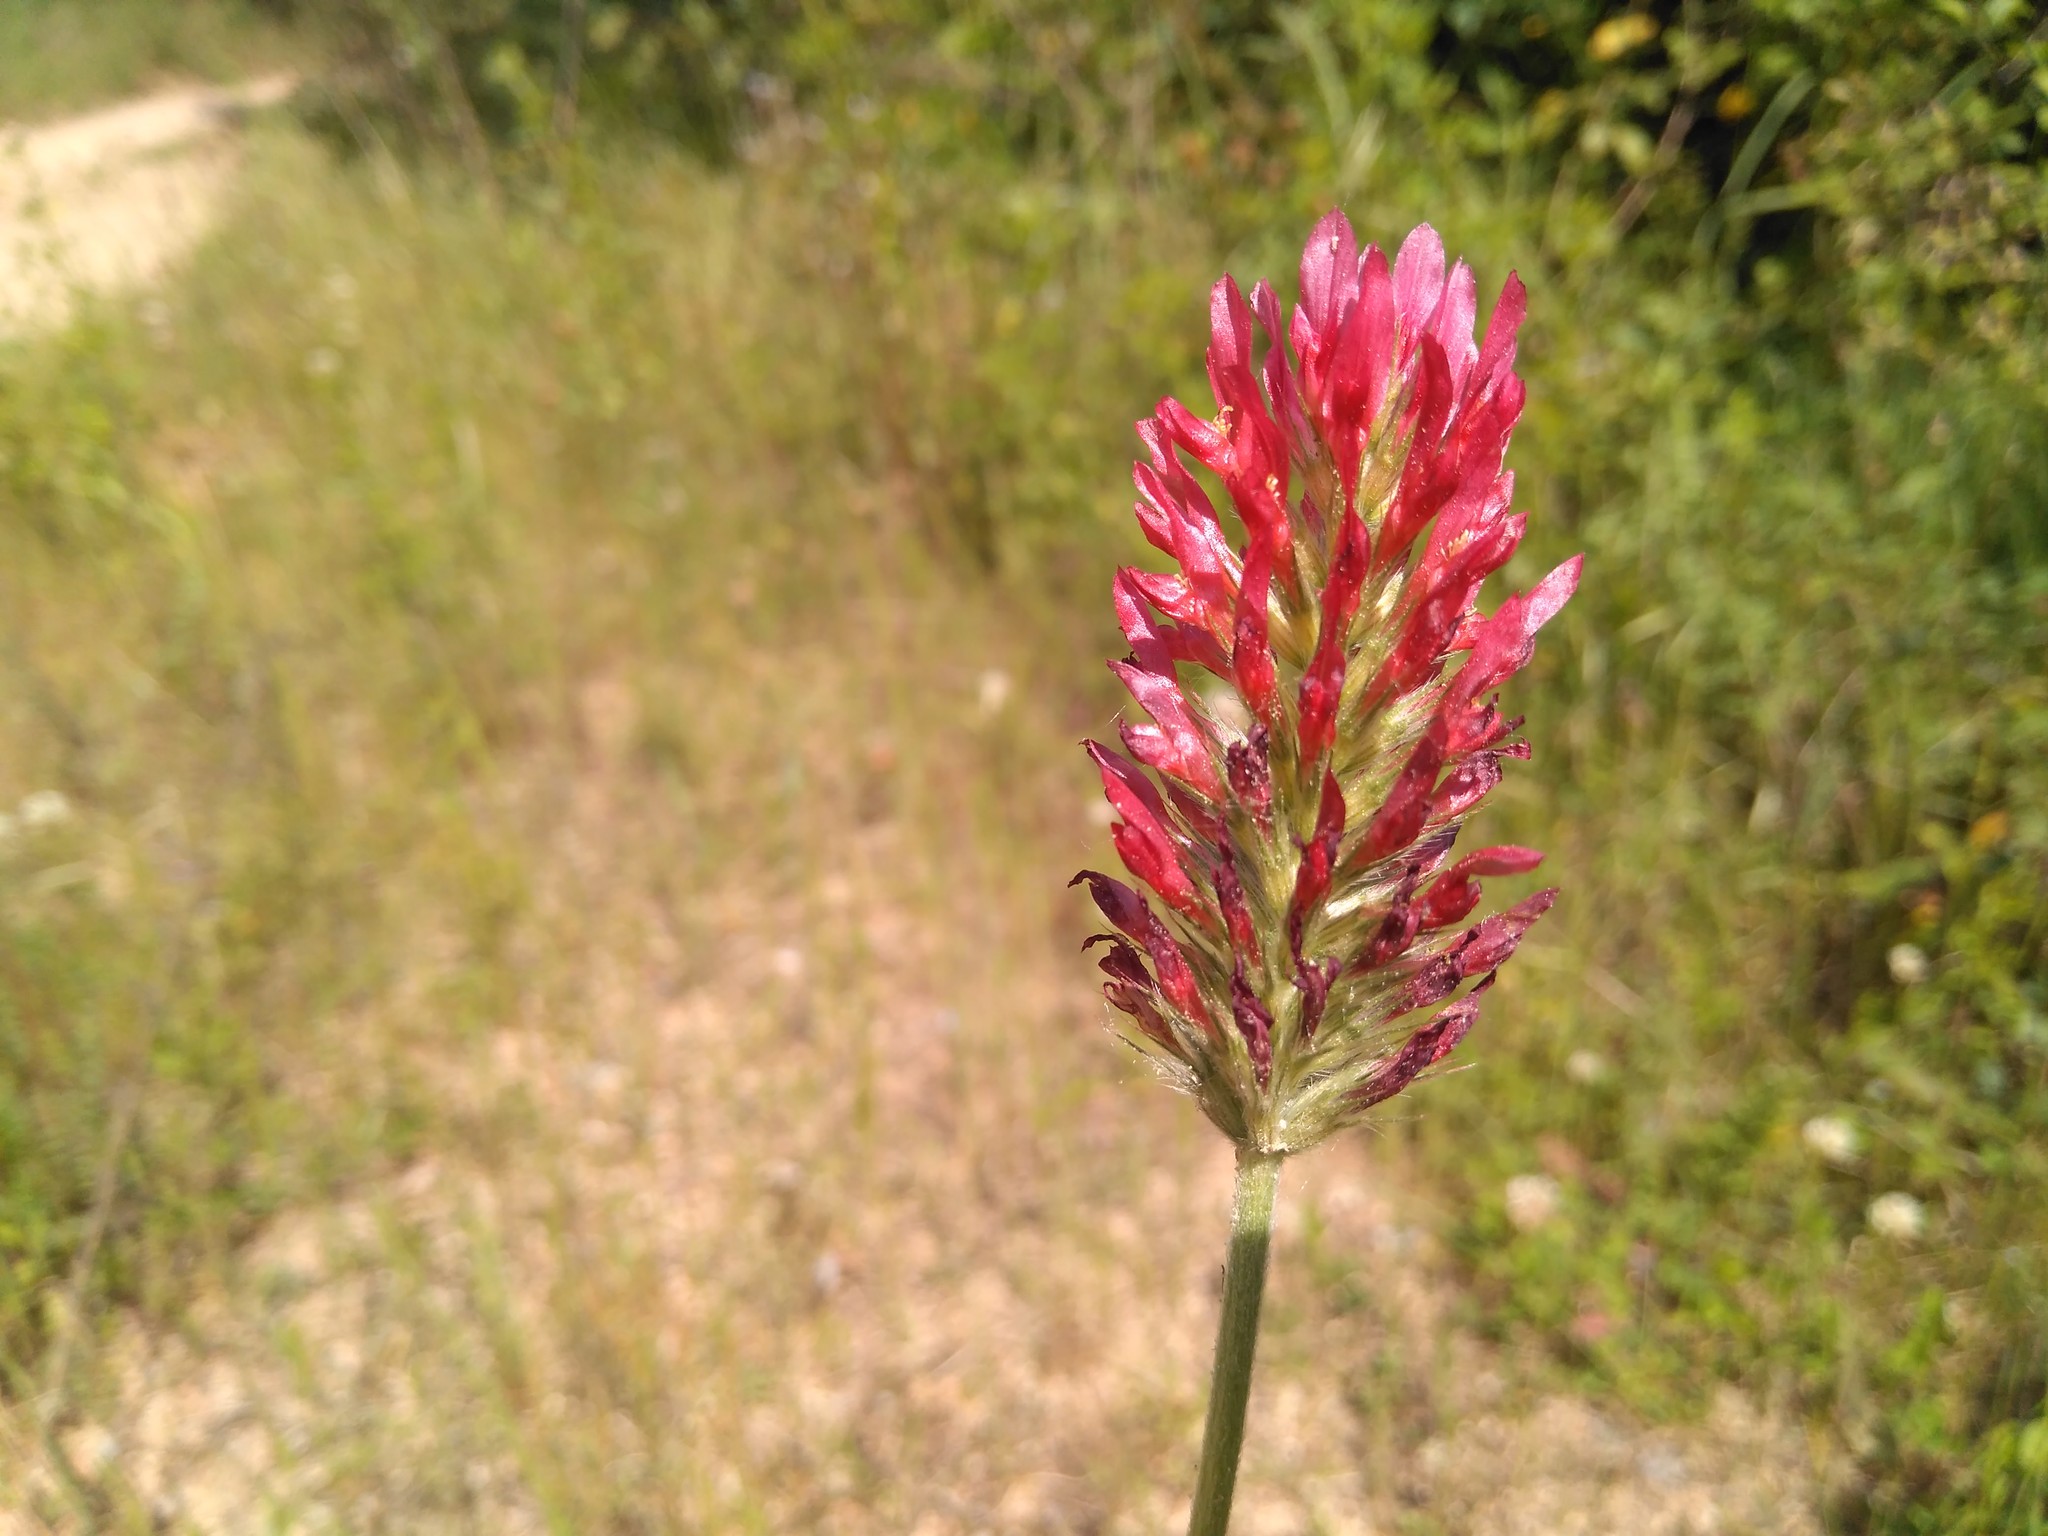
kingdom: Plantae
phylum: Tracheophyta
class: Magnoliopsida
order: Fabales
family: Fabaceae
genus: Trifolium
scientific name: Trifolium incarnatum
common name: Crimson clover
